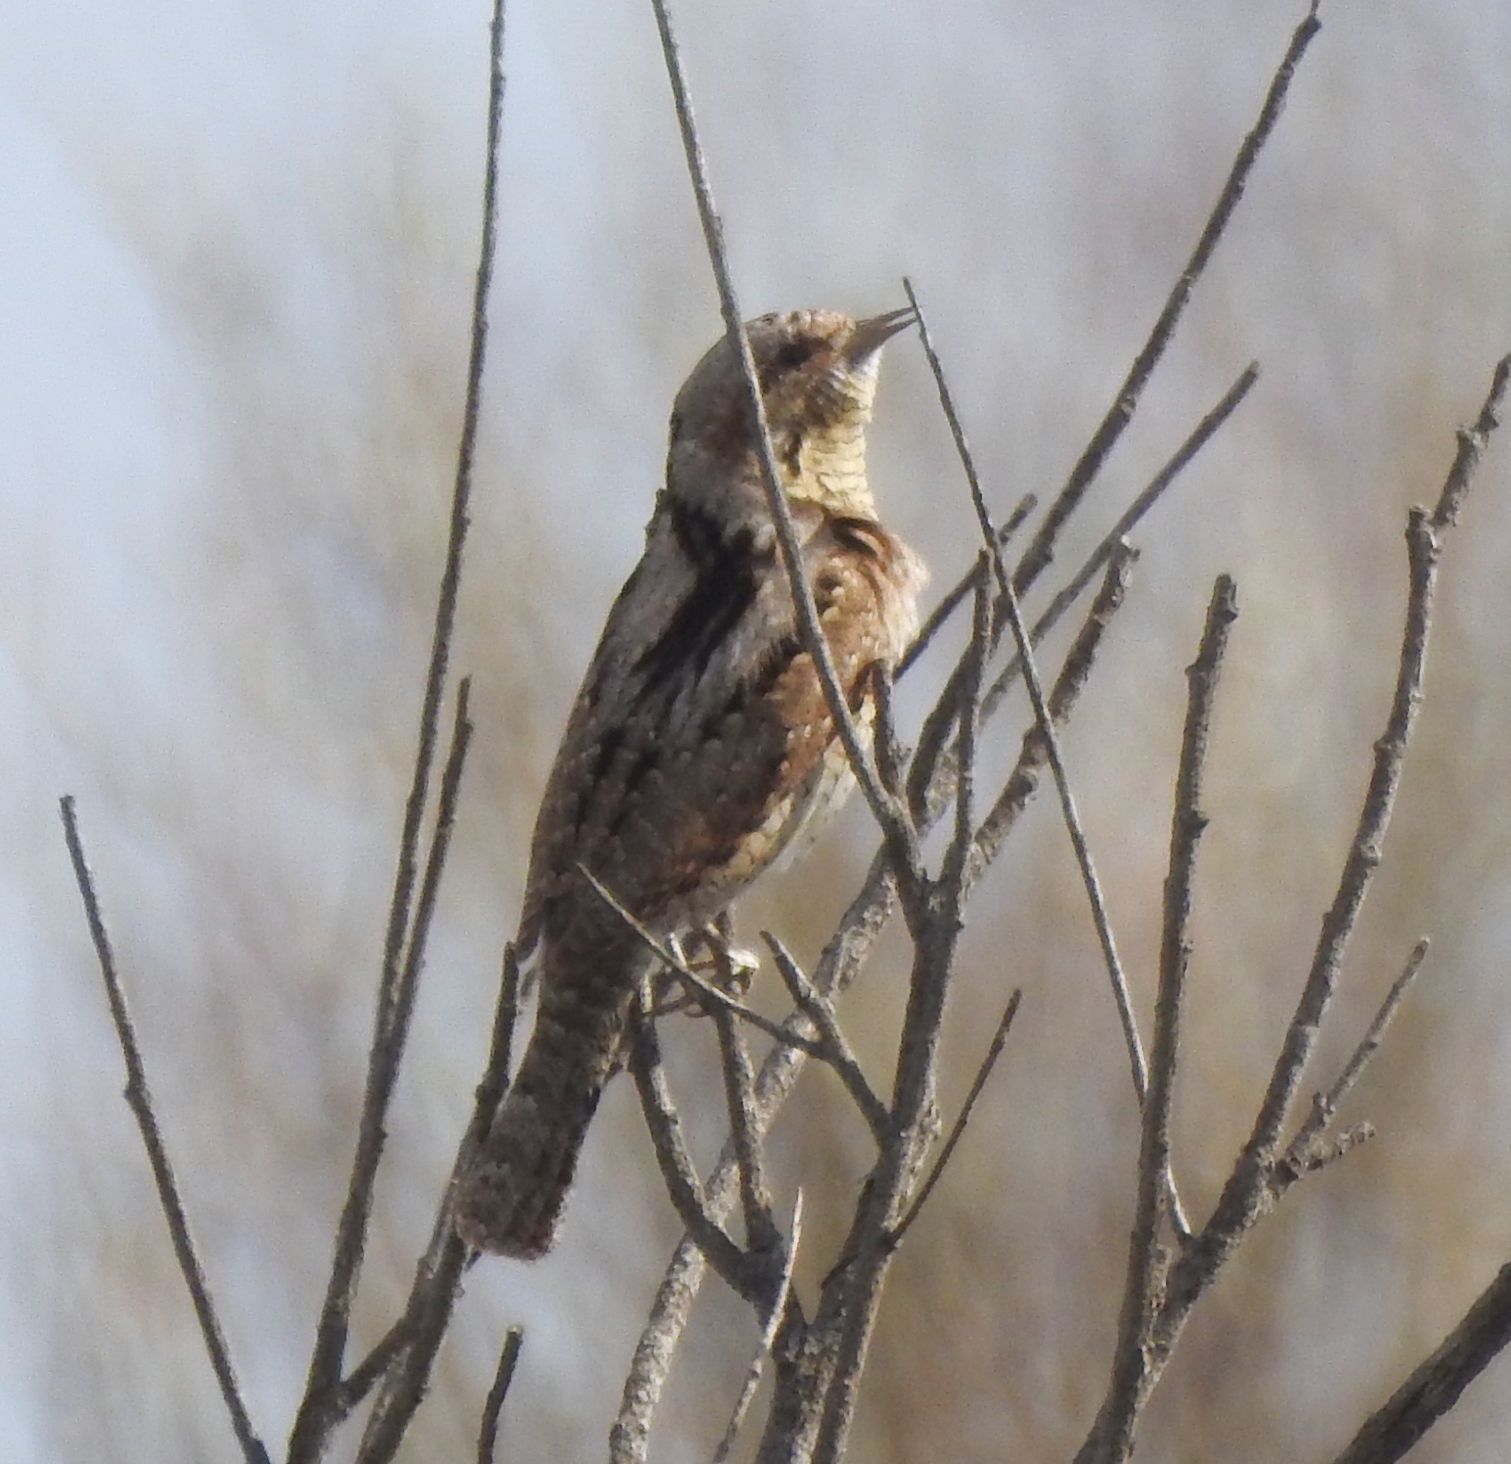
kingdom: Animalia
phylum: Chordata
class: Aves
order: Piciformes
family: Picidae
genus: Jynx
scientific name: Jynx torquilla
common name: Eurasian wryneck
